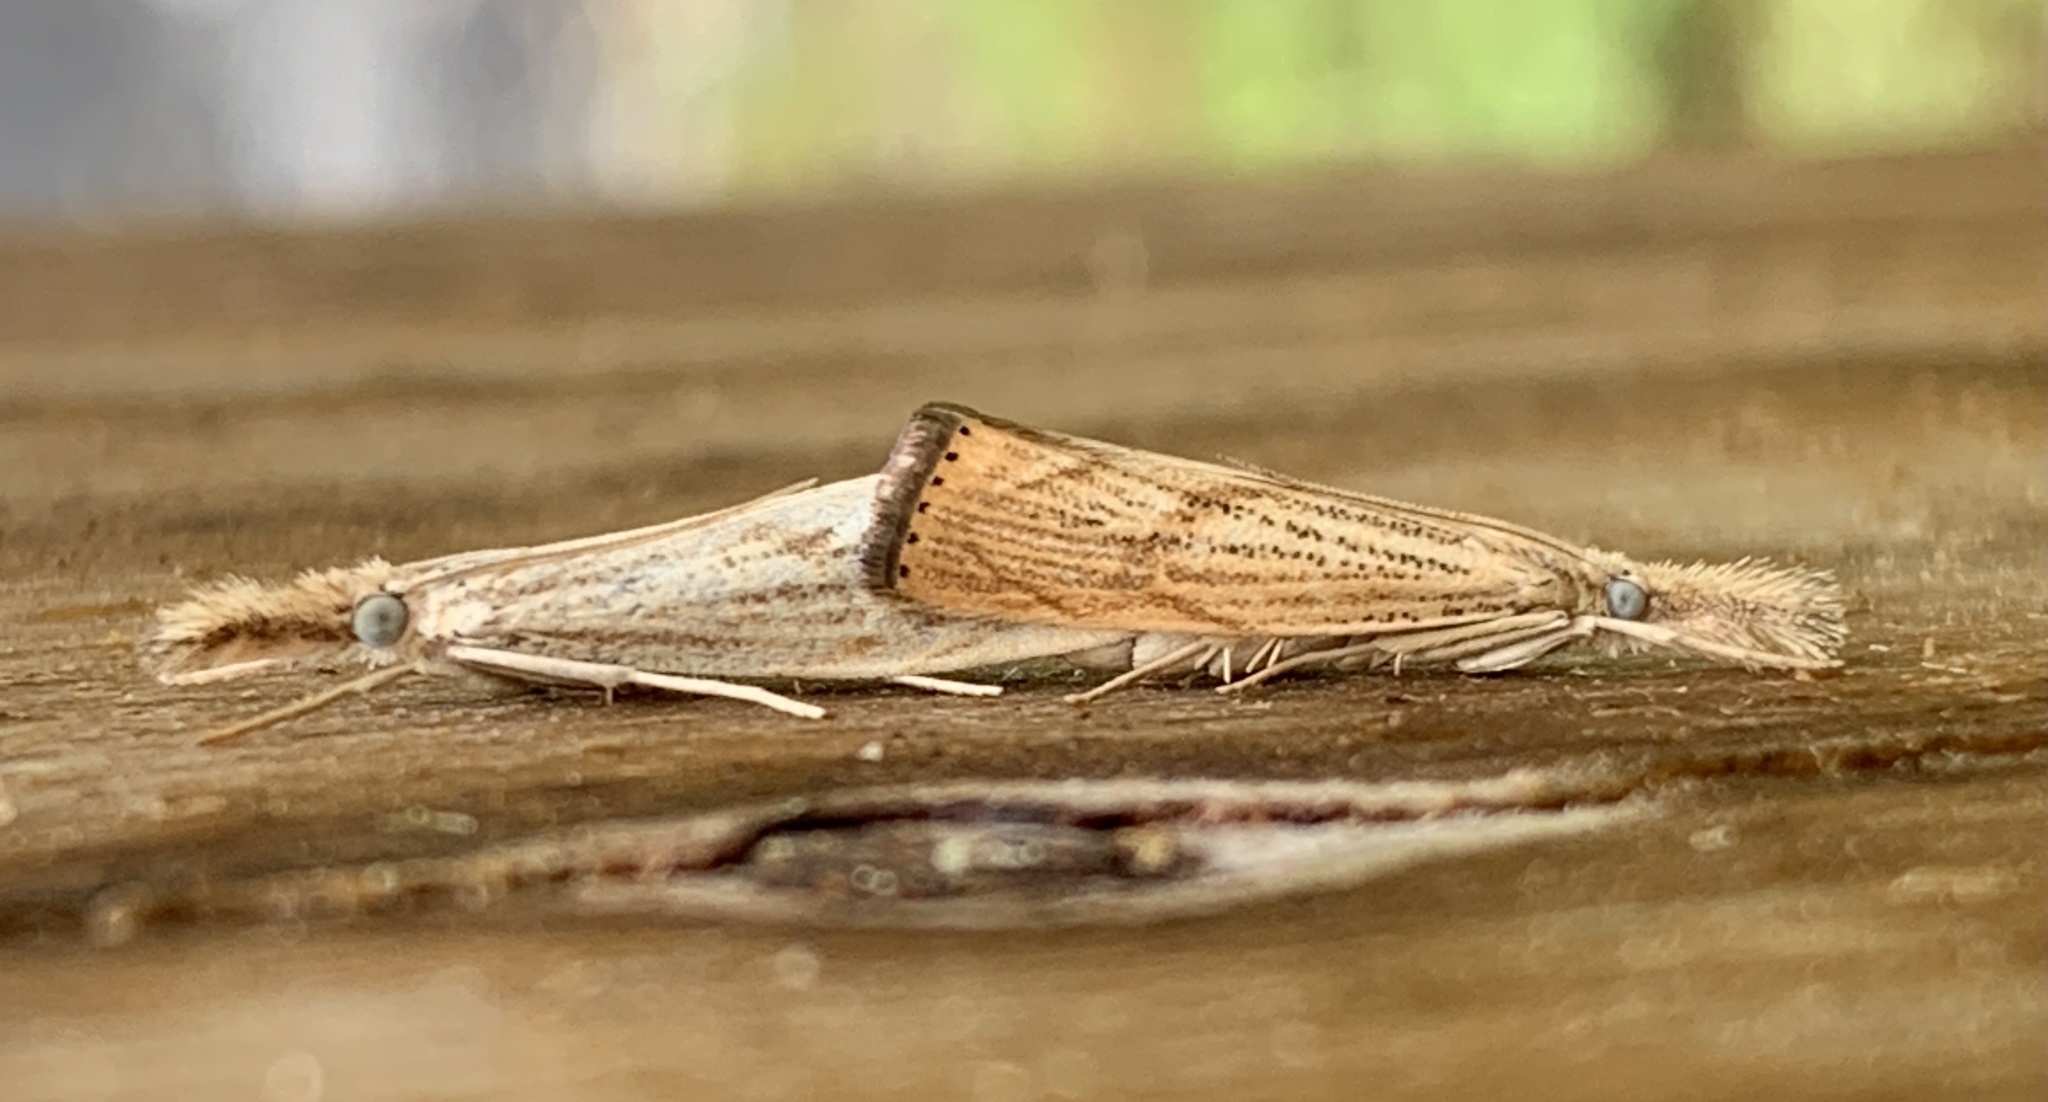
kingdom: Animalia
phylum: Arthropoda
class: Insecta
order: Lepidoptera
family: Crambidae
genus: Agriphila
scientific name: Agriphila ruricolellus
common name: Lesser vagabond sod webworm
